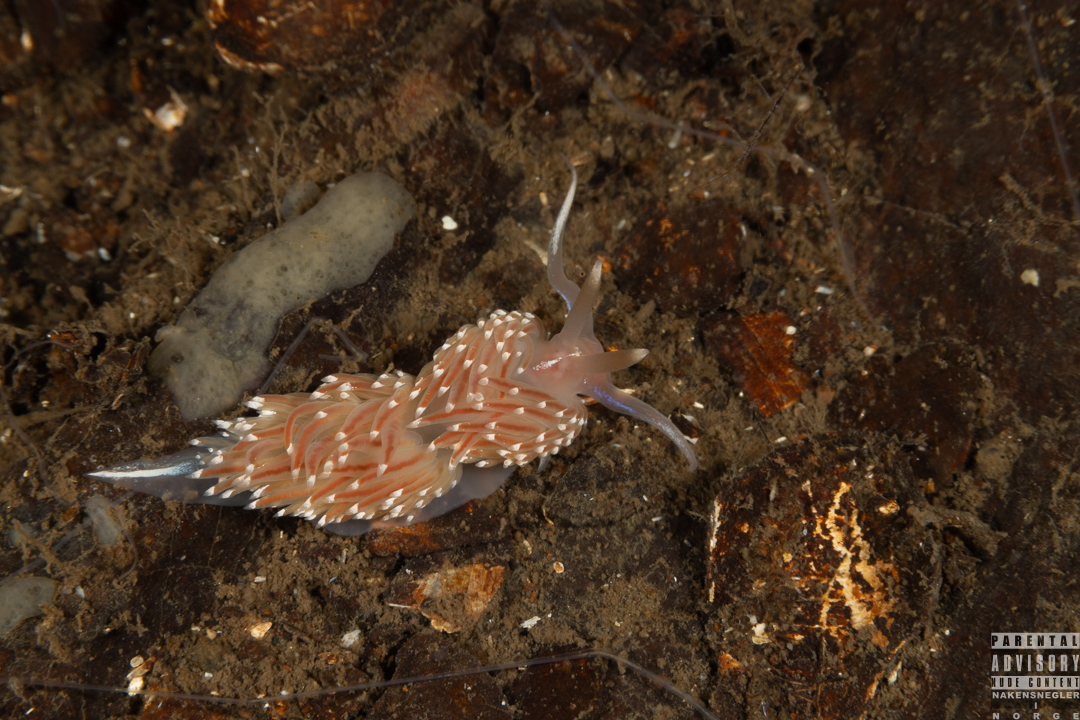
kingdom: Animalia
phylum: Mollusca
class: Gastropoda
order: Nudibranchia
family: Facelinidae
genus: Facelina
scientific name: Facelina bostoniensis
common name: Boston facelina
